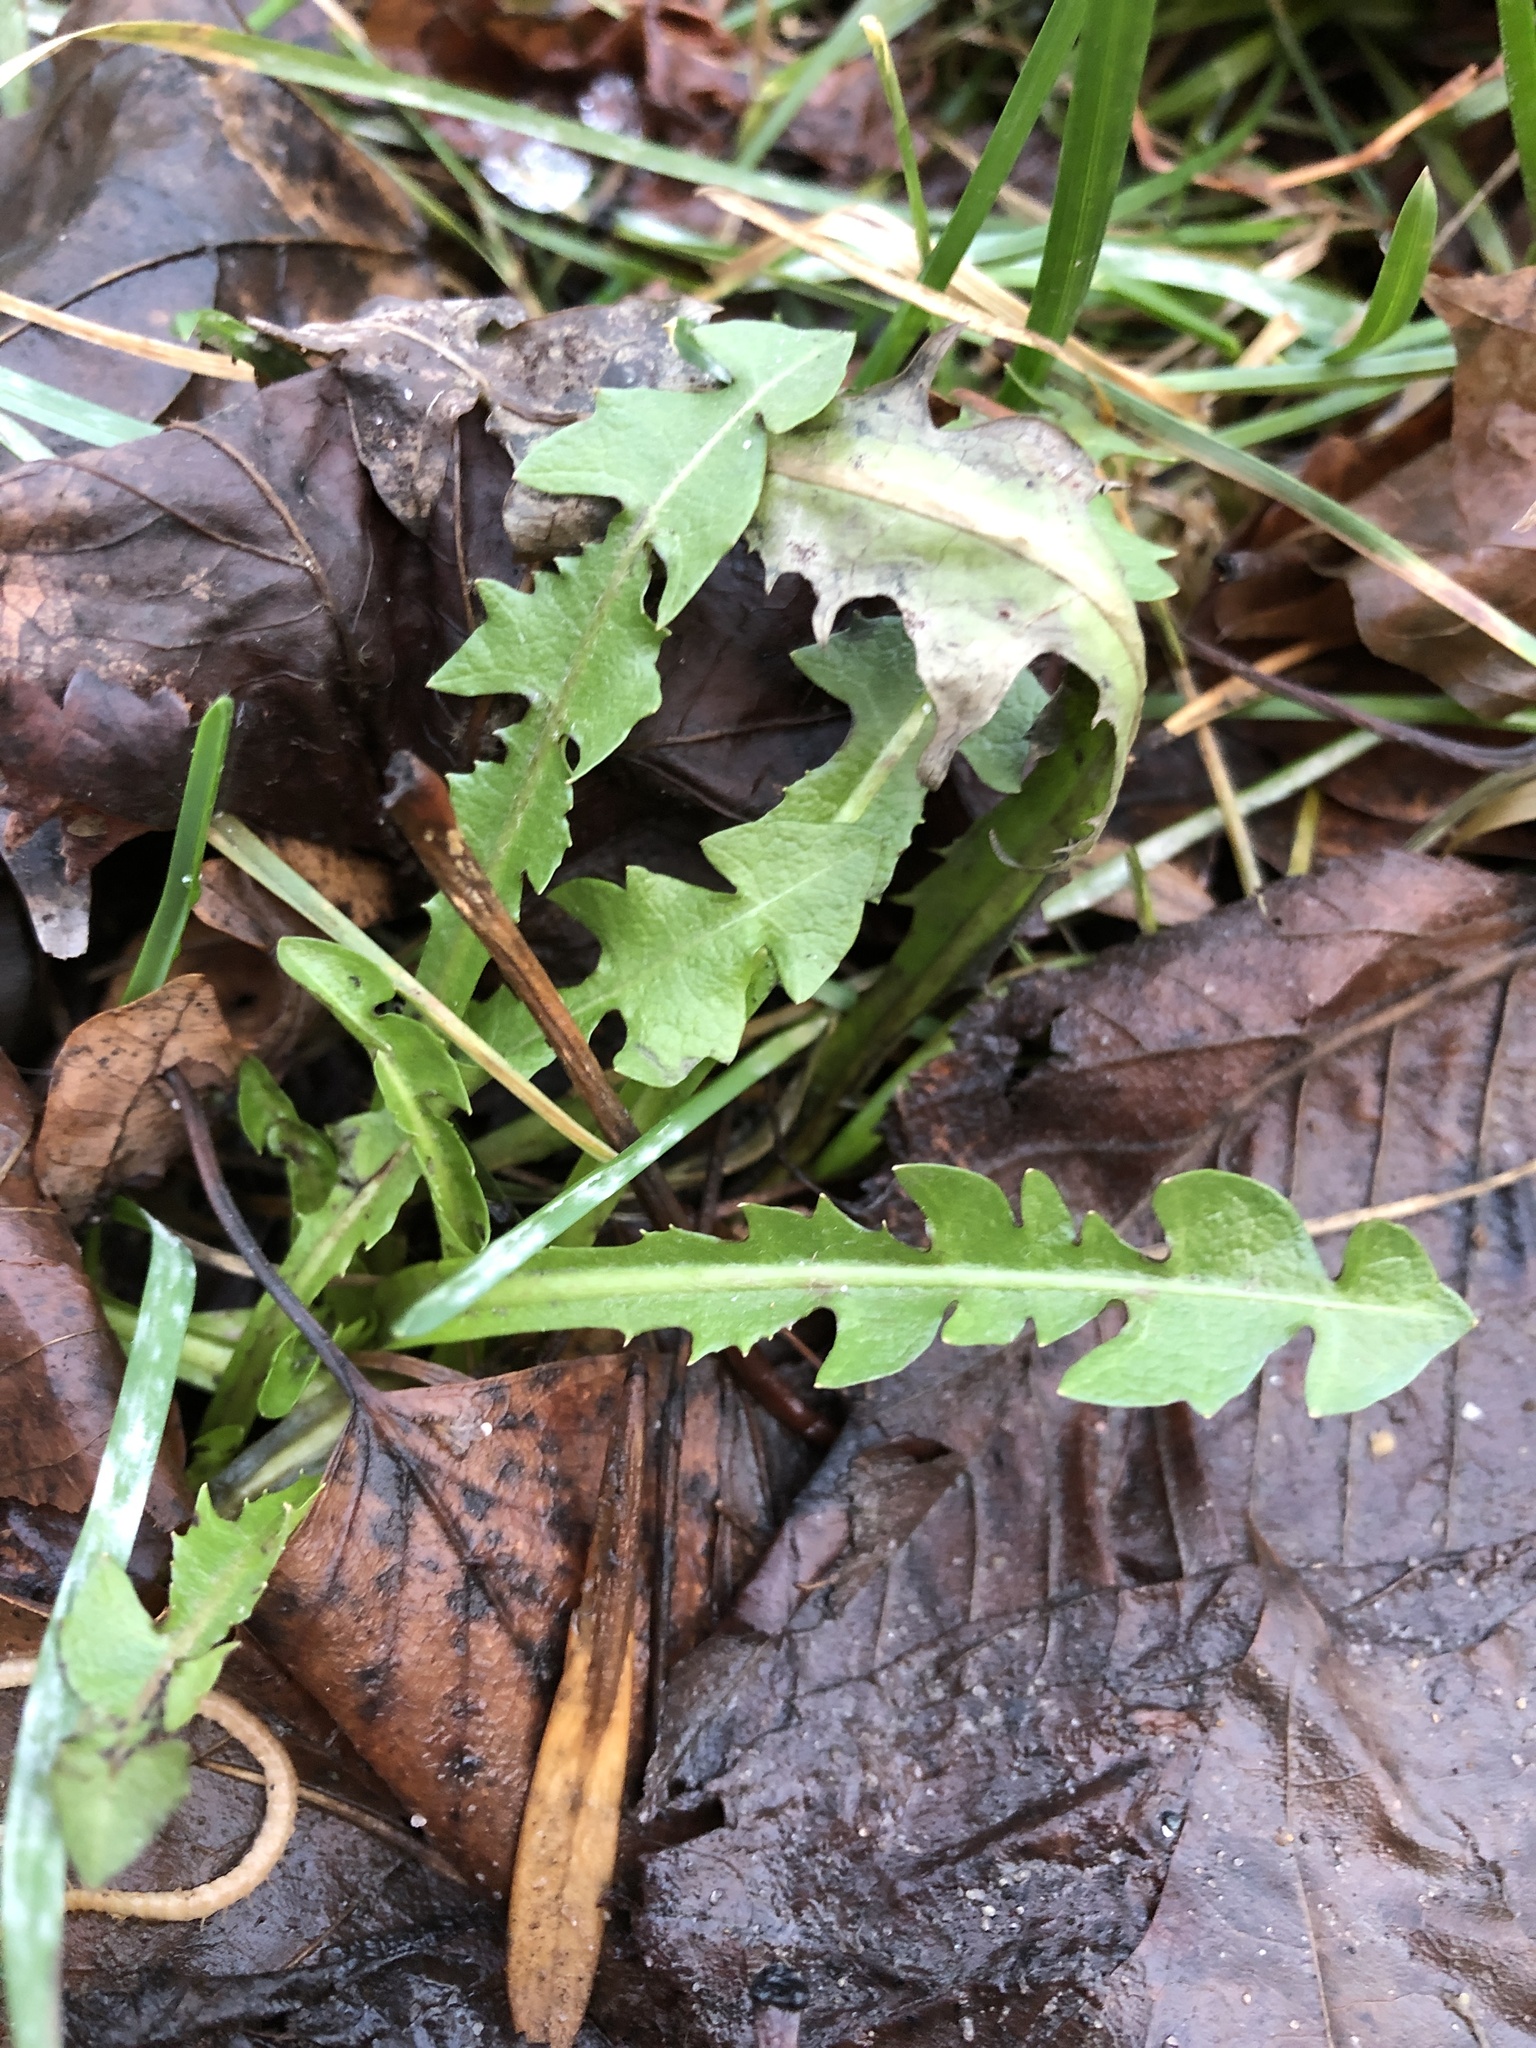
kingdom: Plantae
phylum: Tracheophyta
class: Magnoliopsida
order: Asterales
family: Asteraceae
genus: Taraxacum
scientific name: Taraxacum officinale
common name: Common dandelion
